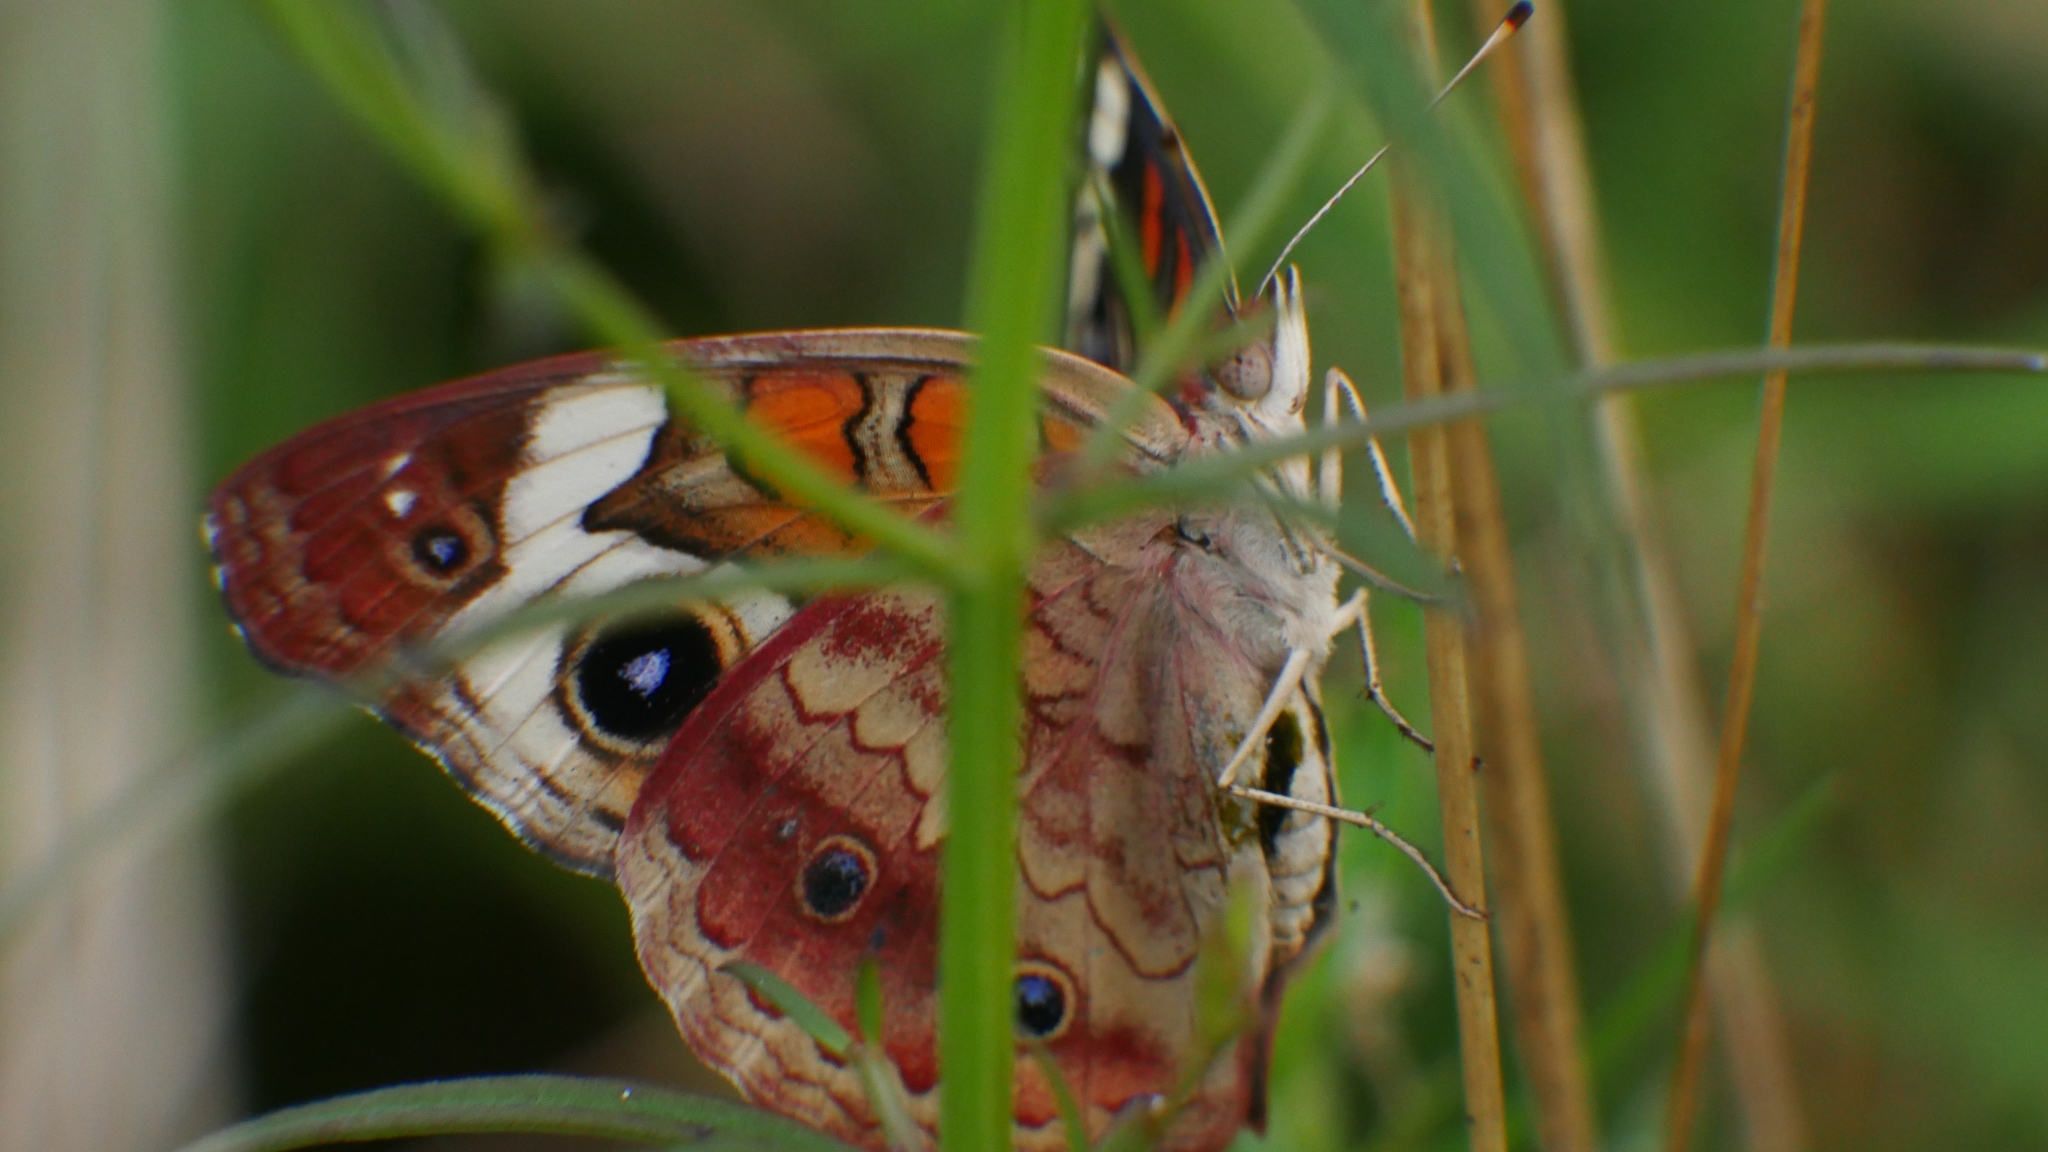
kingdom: Animalia
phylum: Arthropoda
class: Insecta
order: Lepidoptera
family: Nymphalidae
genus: Junonia
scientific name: Junonia coenia
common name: Common buckeye
